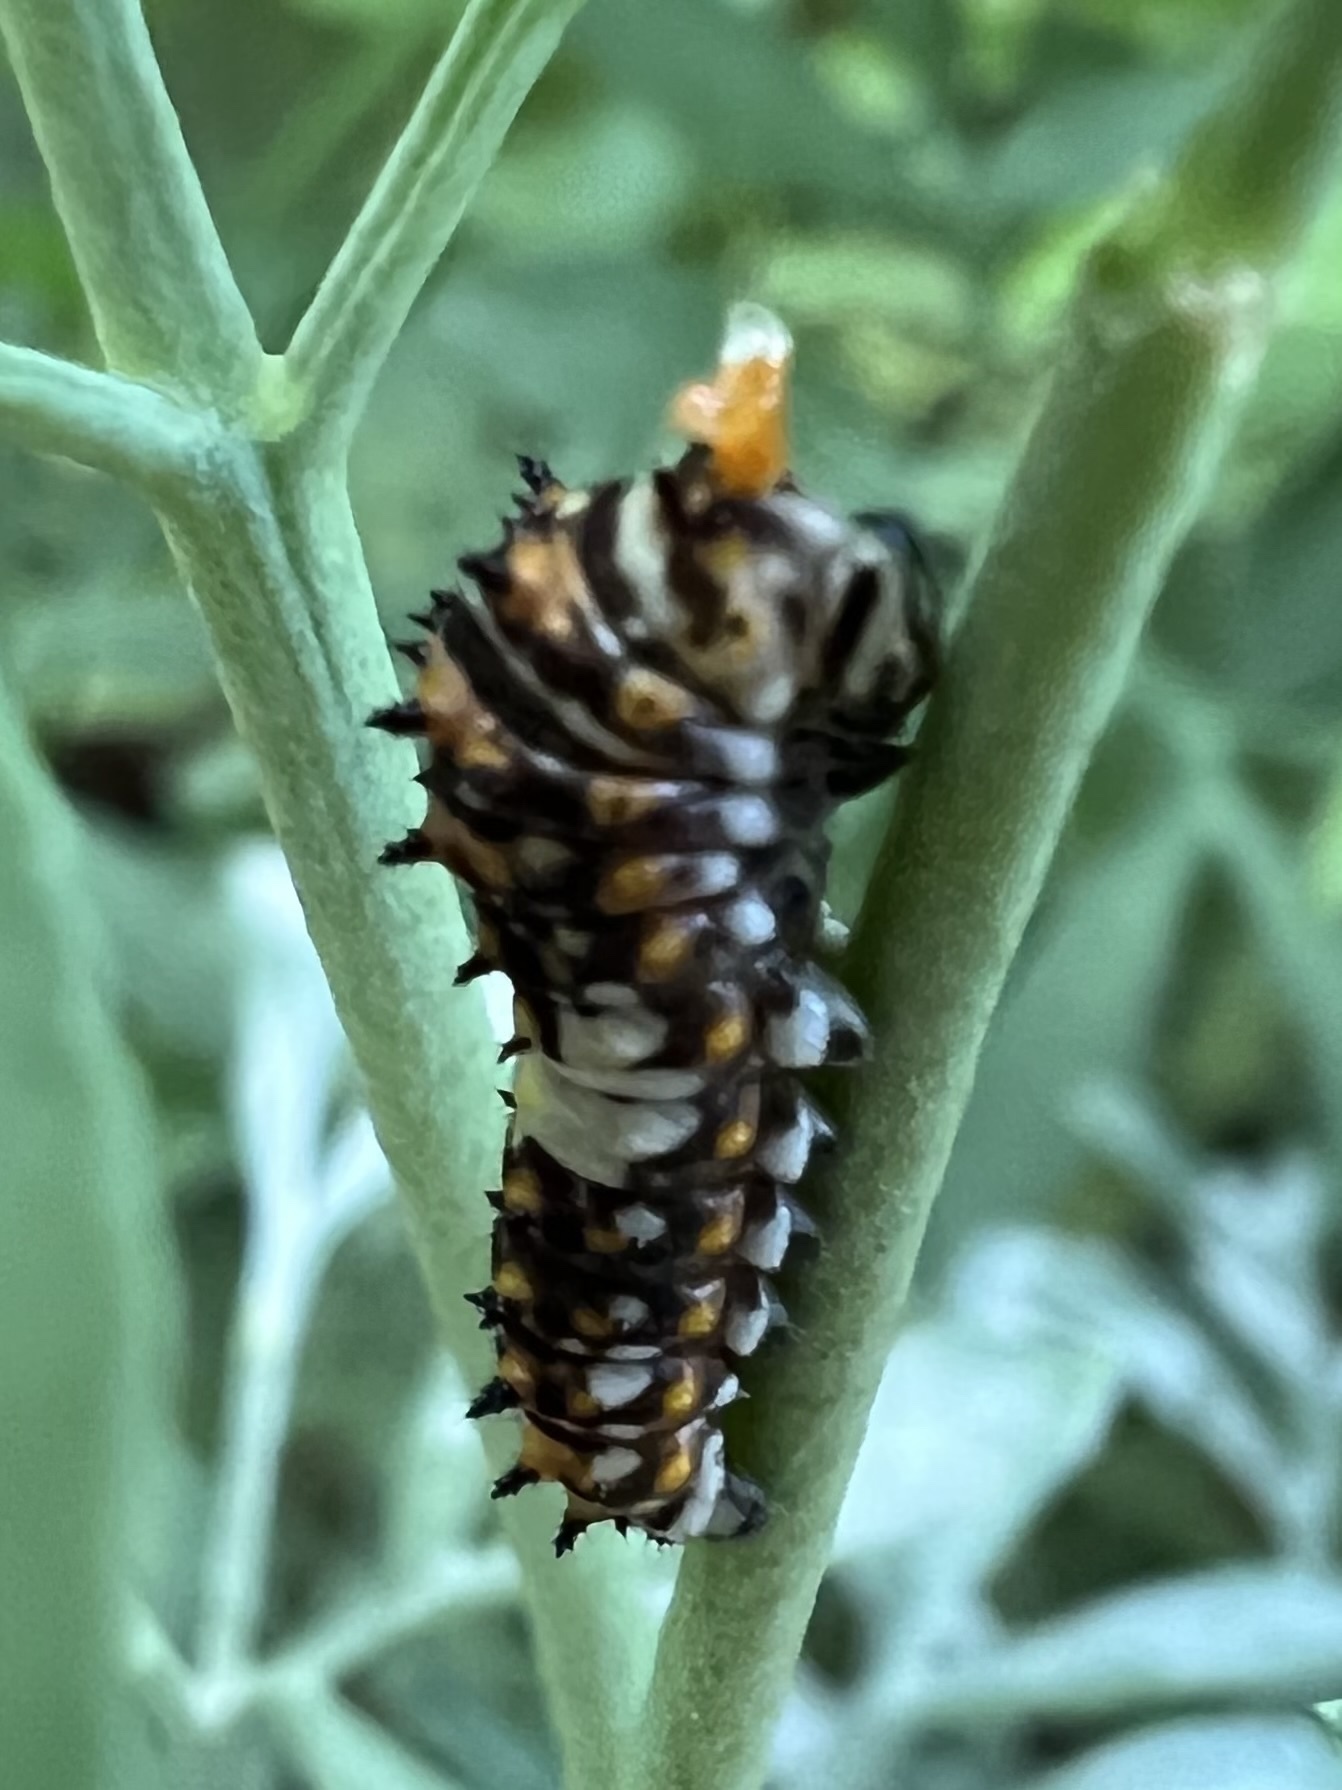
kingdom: Animalia
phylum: Arthropoda
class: Insecta
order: Lepidoptera
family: Papilionidae
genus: Papilio
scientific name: Papilio polyxenes
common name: Black swallowtail
